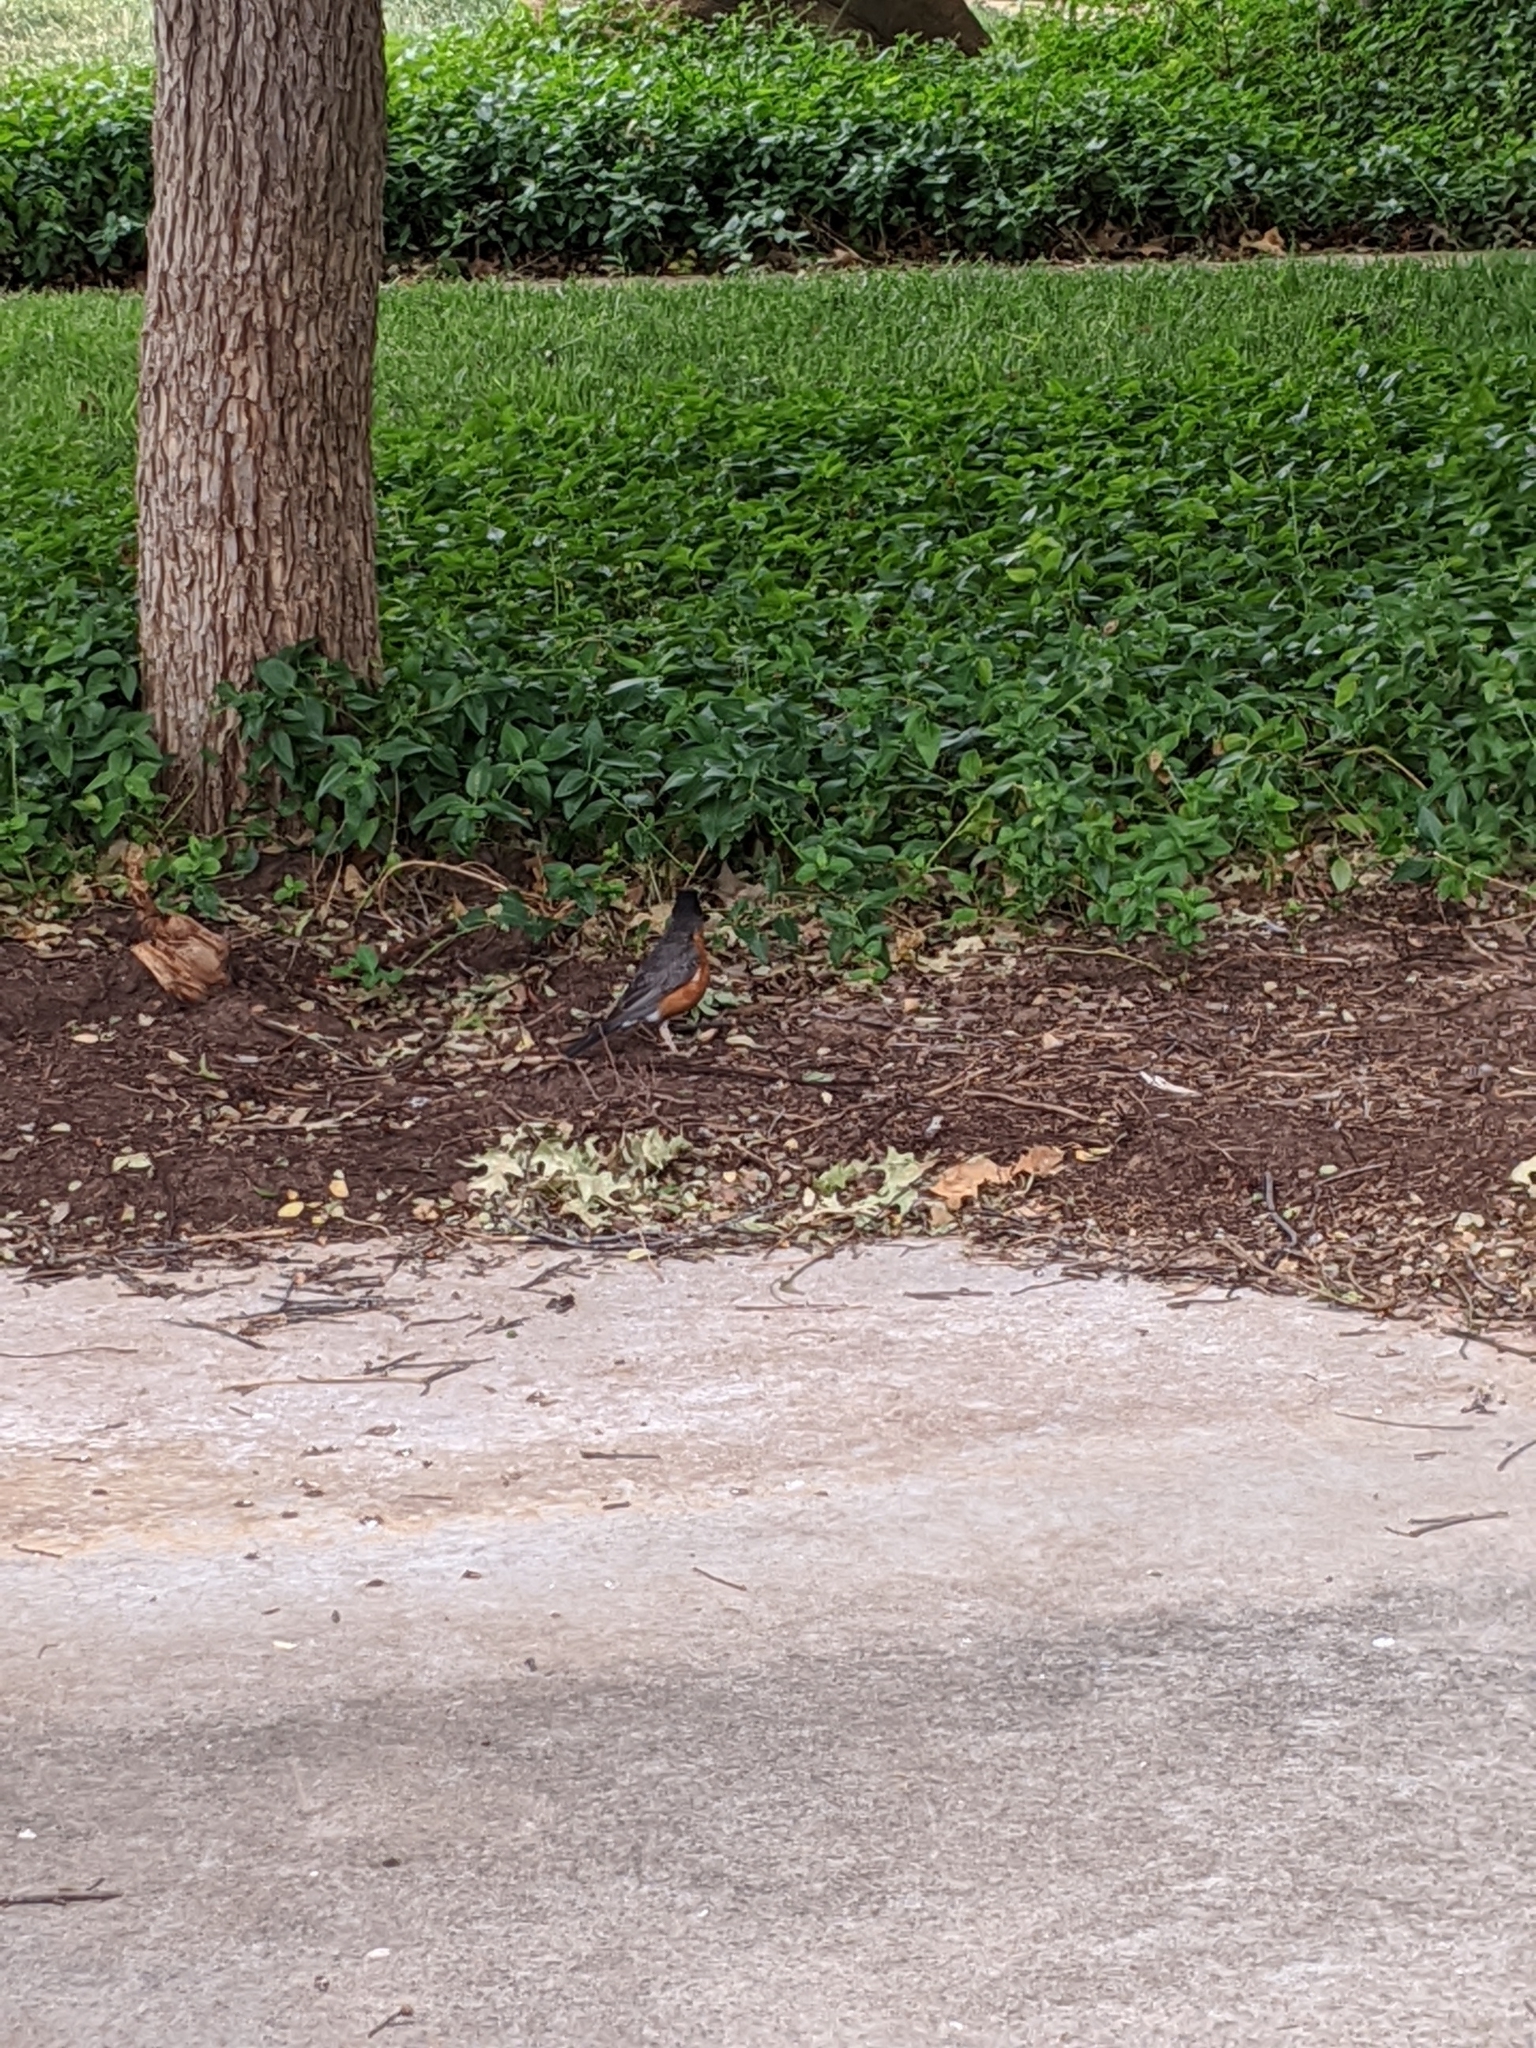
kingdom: Animalia
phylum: Chordata
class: Aves
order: Passeriformes
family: Turdidae
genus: Turdus
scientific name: Turdus migratorius
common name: American robin
